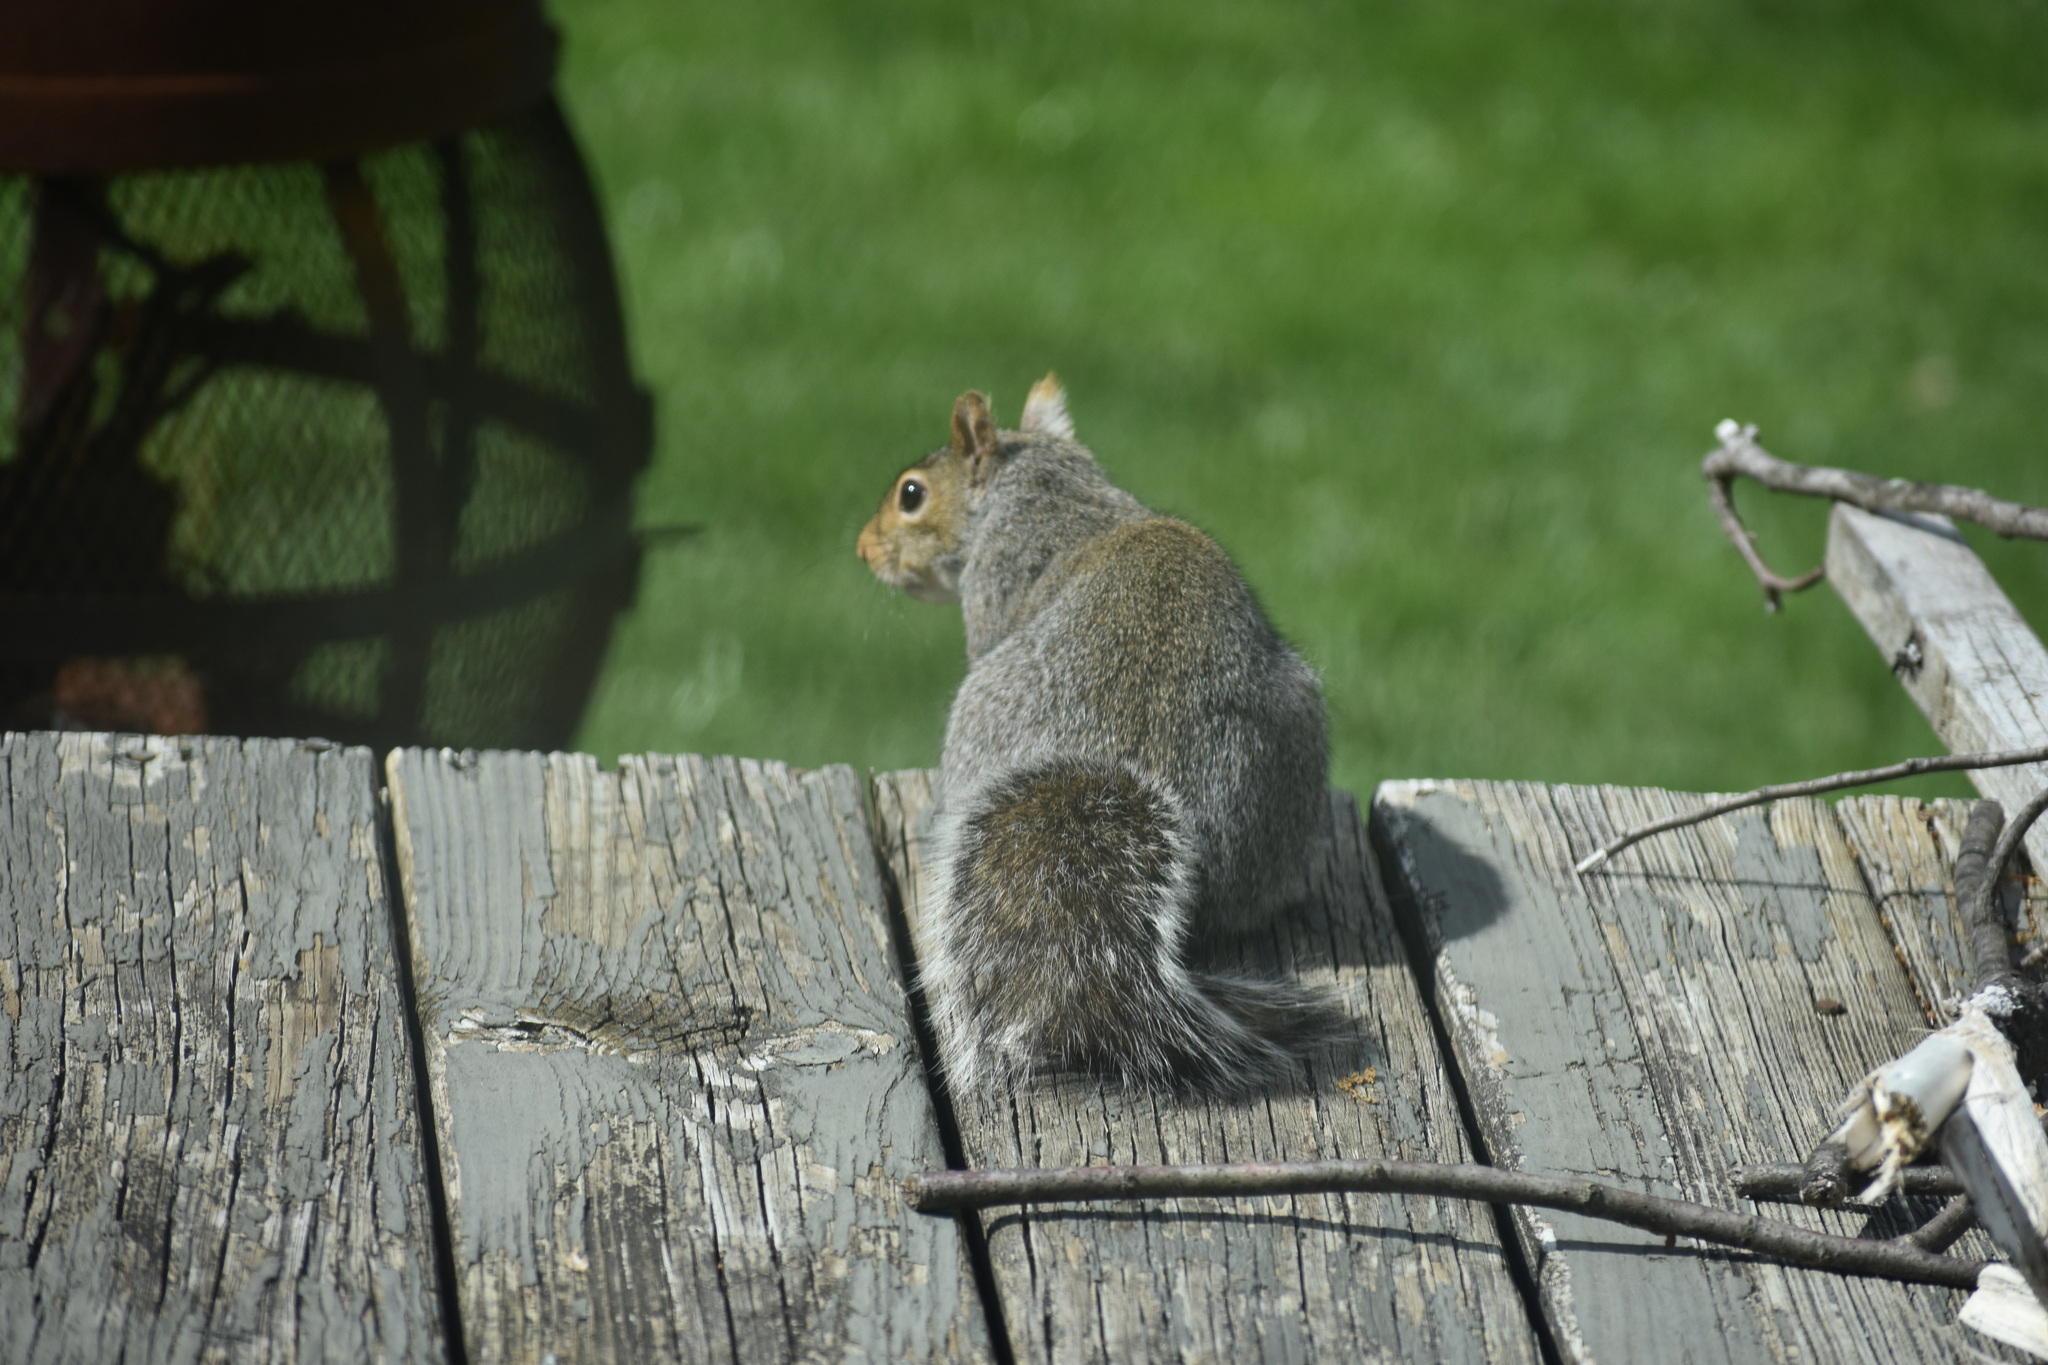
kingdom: Animalia
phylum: Chordata
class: Mammalia
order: Rodentia
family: Sciuridae
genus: Sciurus
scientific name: Sciurus carolinensis
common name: Eastern gray squirrel
